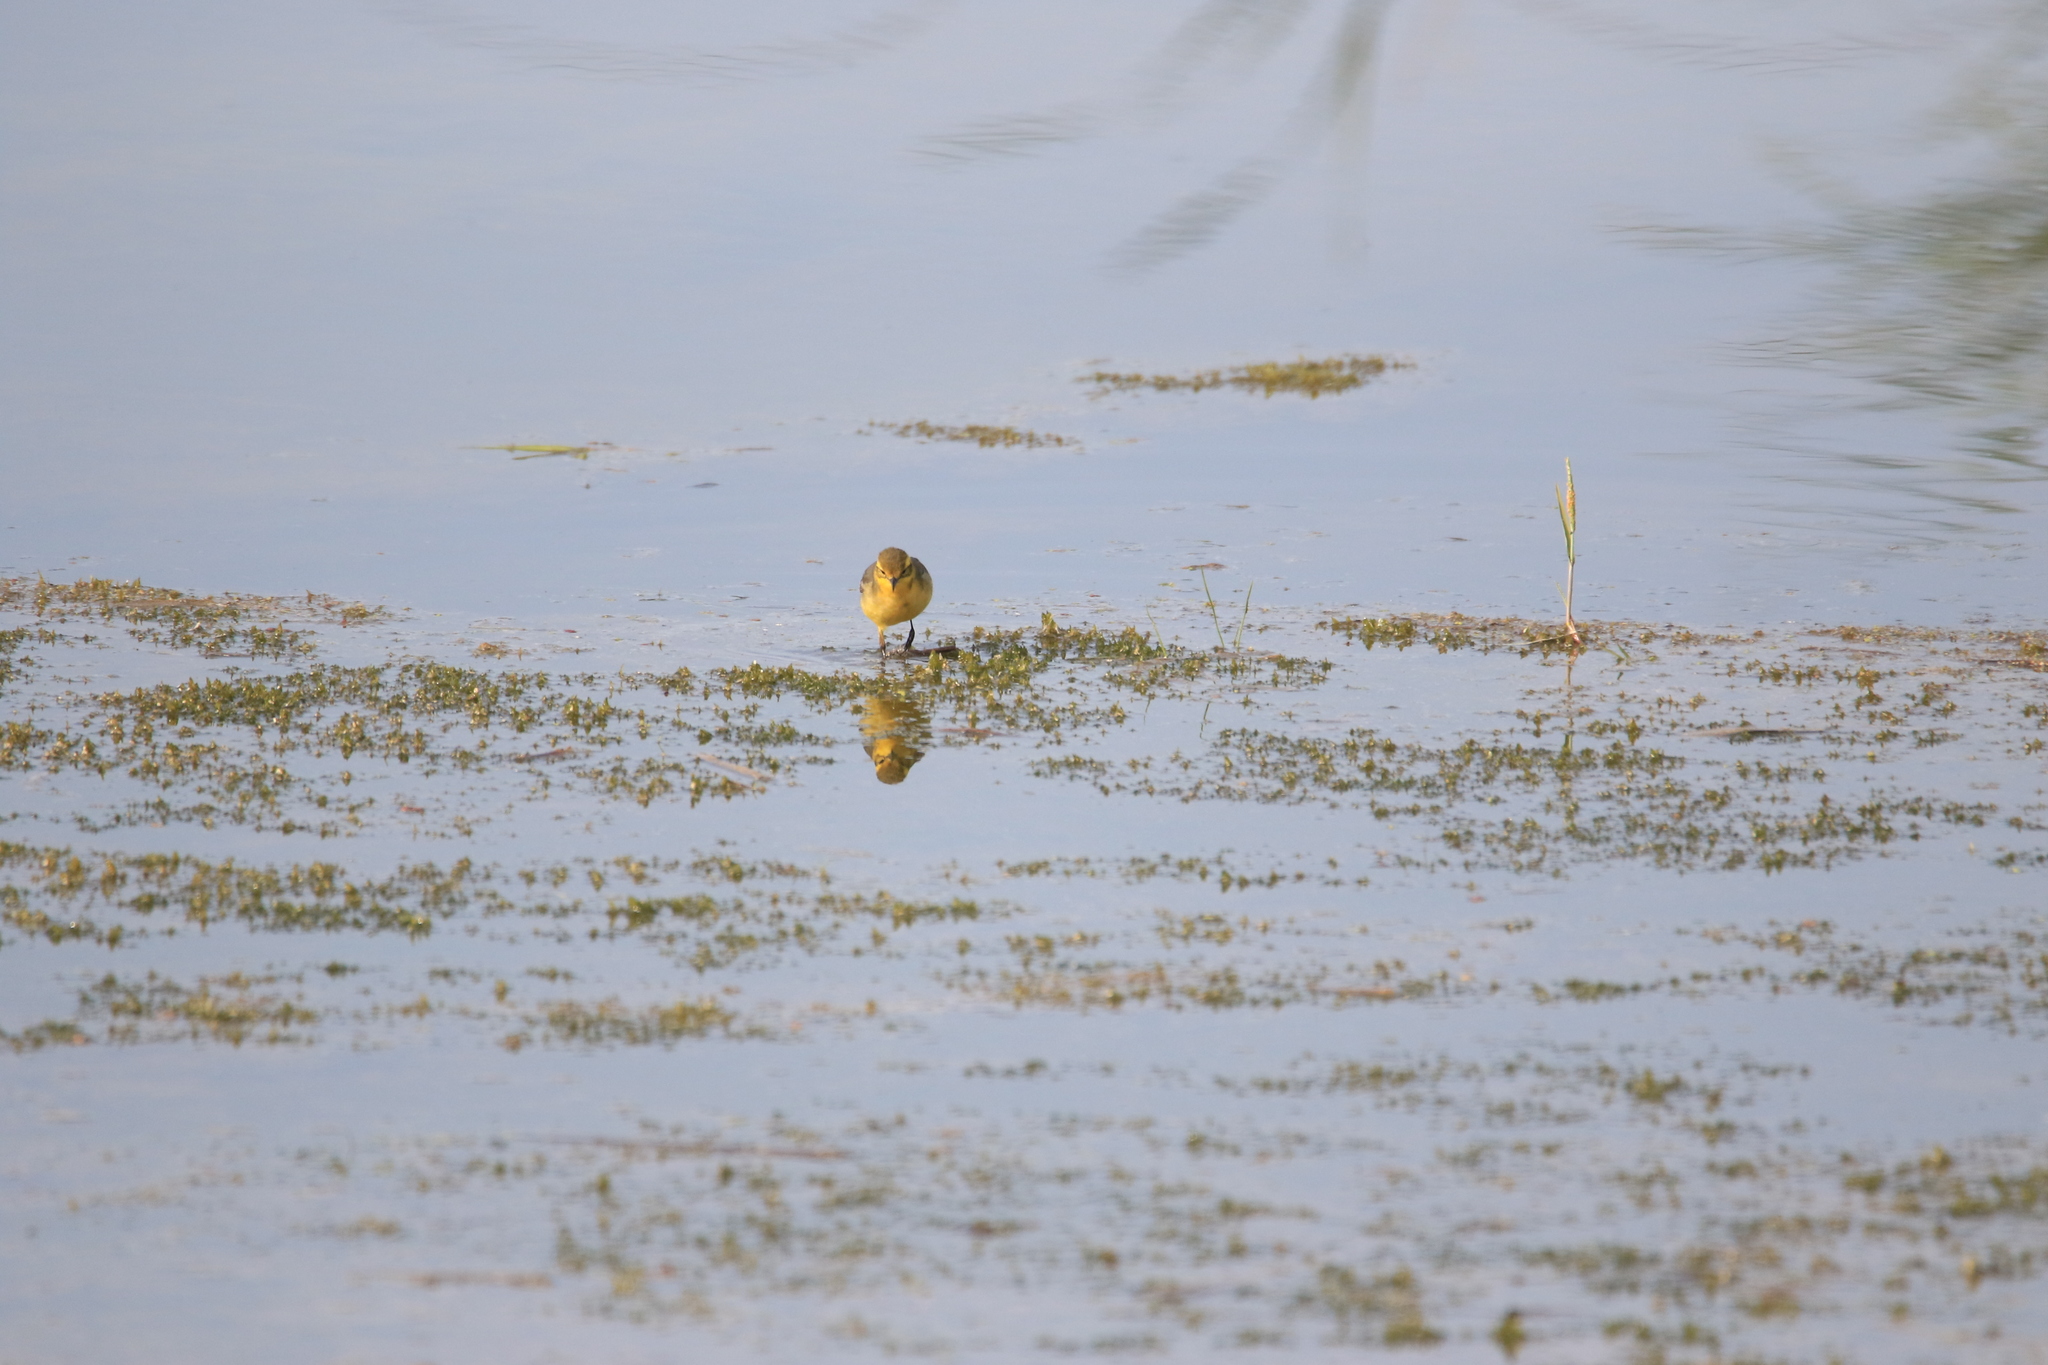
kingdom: Animalia
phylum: Chordata
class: Aves
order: Passeriformes
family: Motacillidae
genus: Motacilla
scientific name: Motacilla citreola
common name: Citrine wagtail
